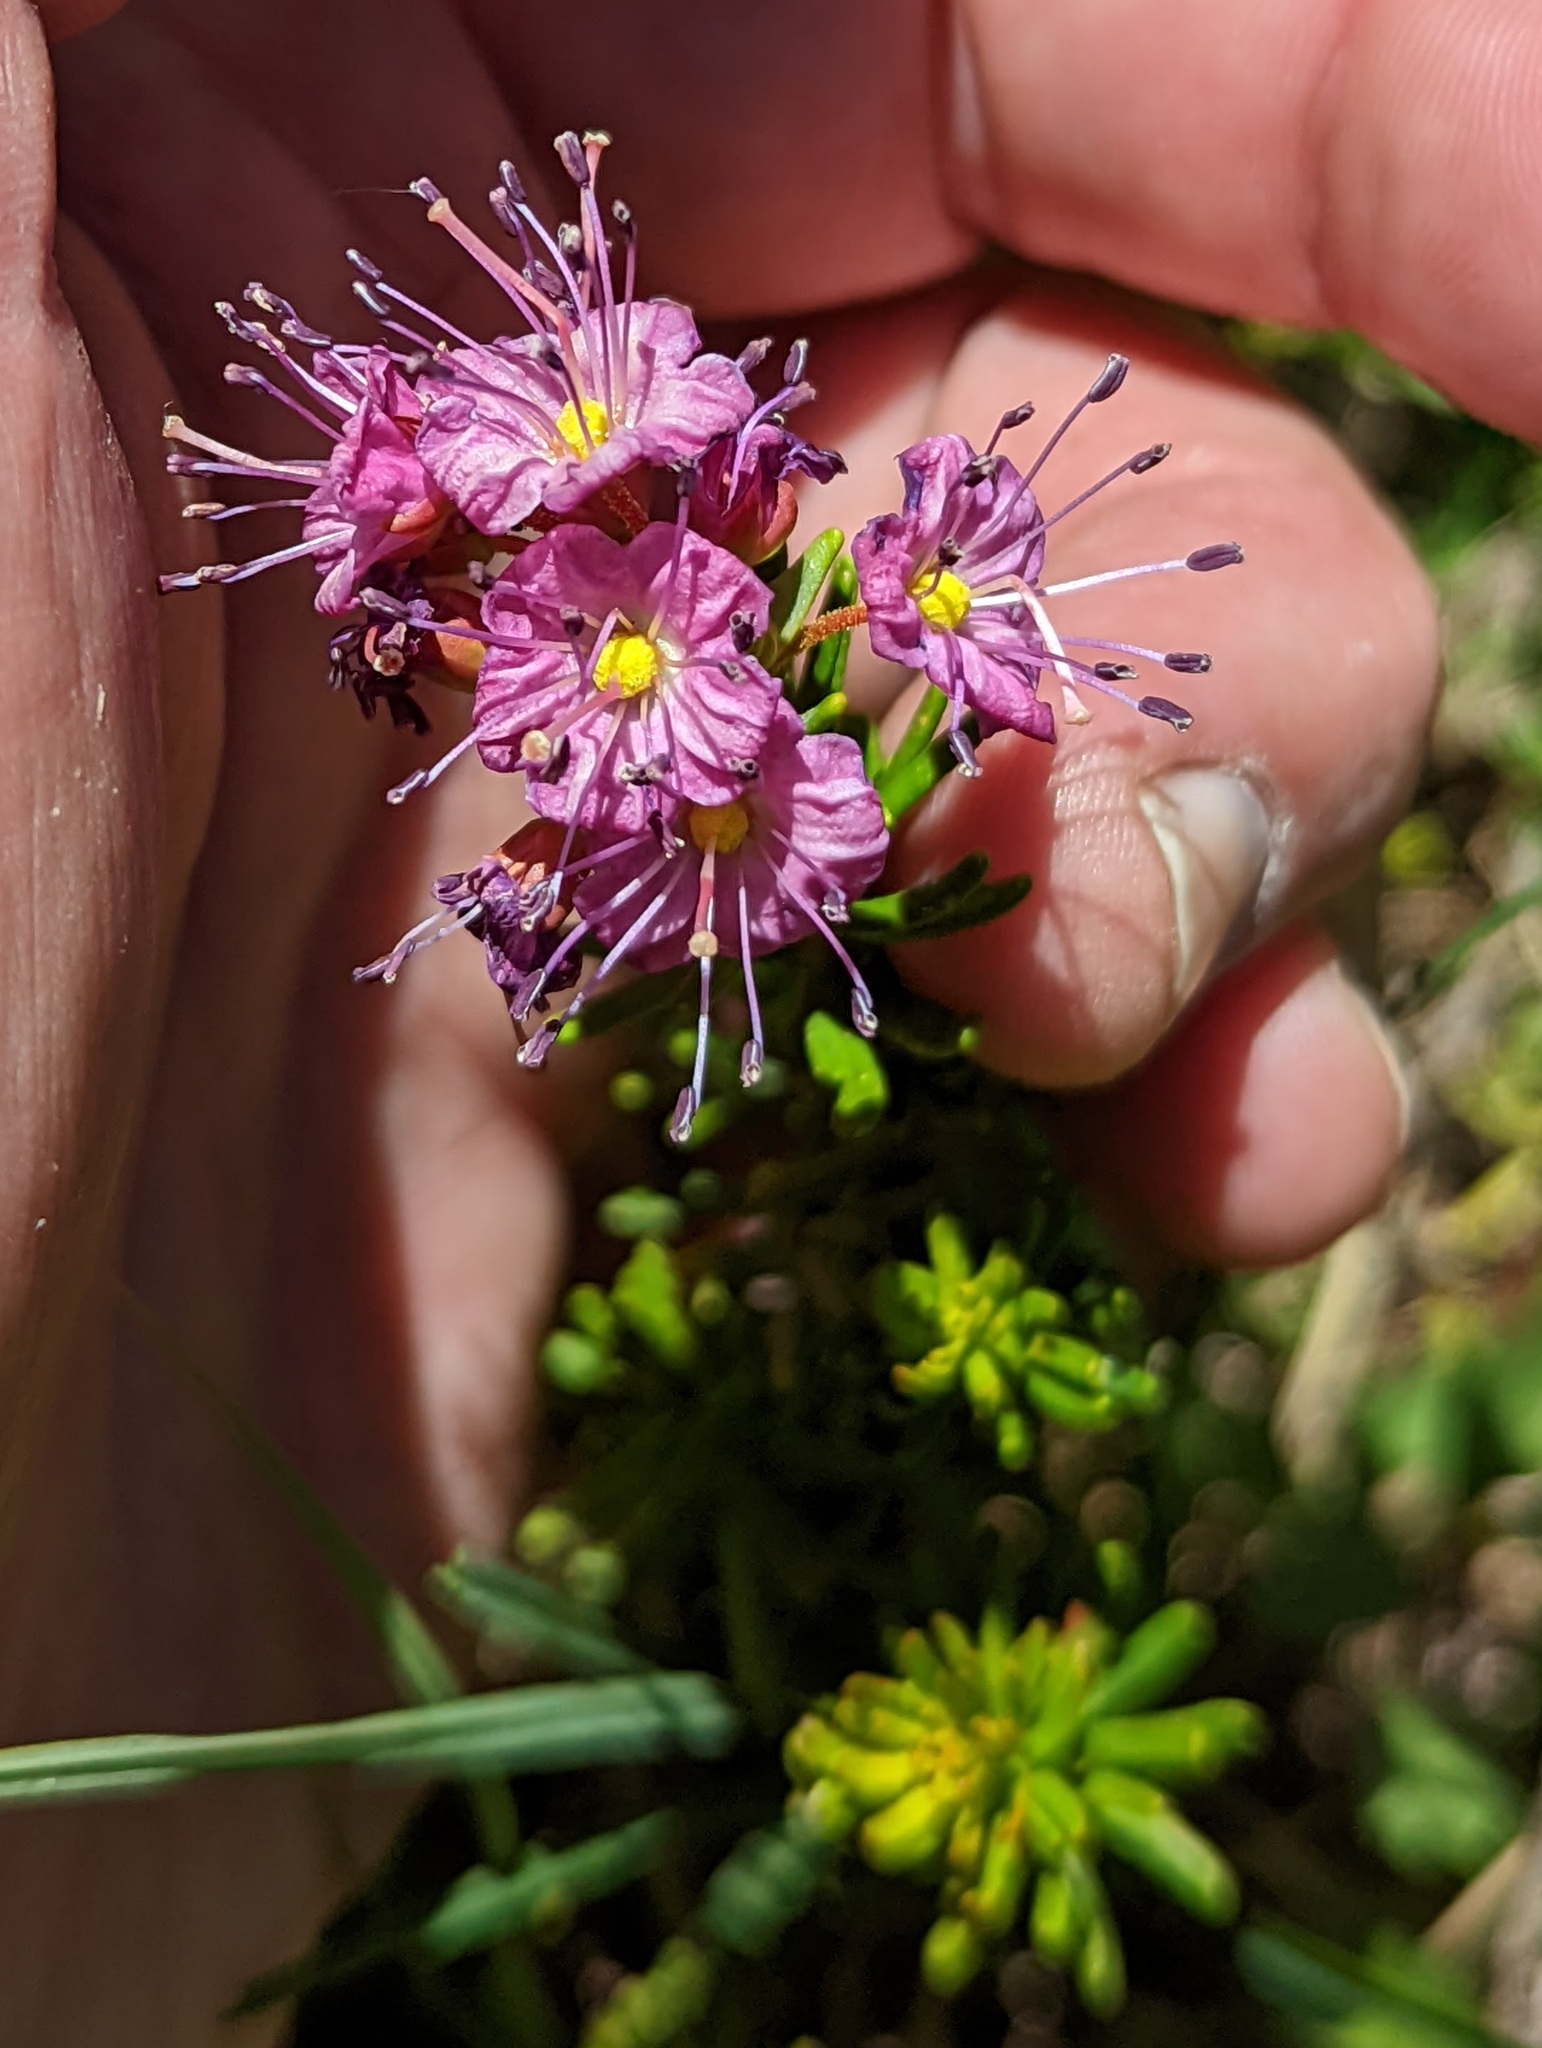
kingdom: Plantae
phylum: Tracheophyta
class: Magnoliopsida
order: Ericales
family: Ericaceae
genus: Phyllodoce
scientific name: Phyllodoce breweri
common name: Brewer's mountain-heather
